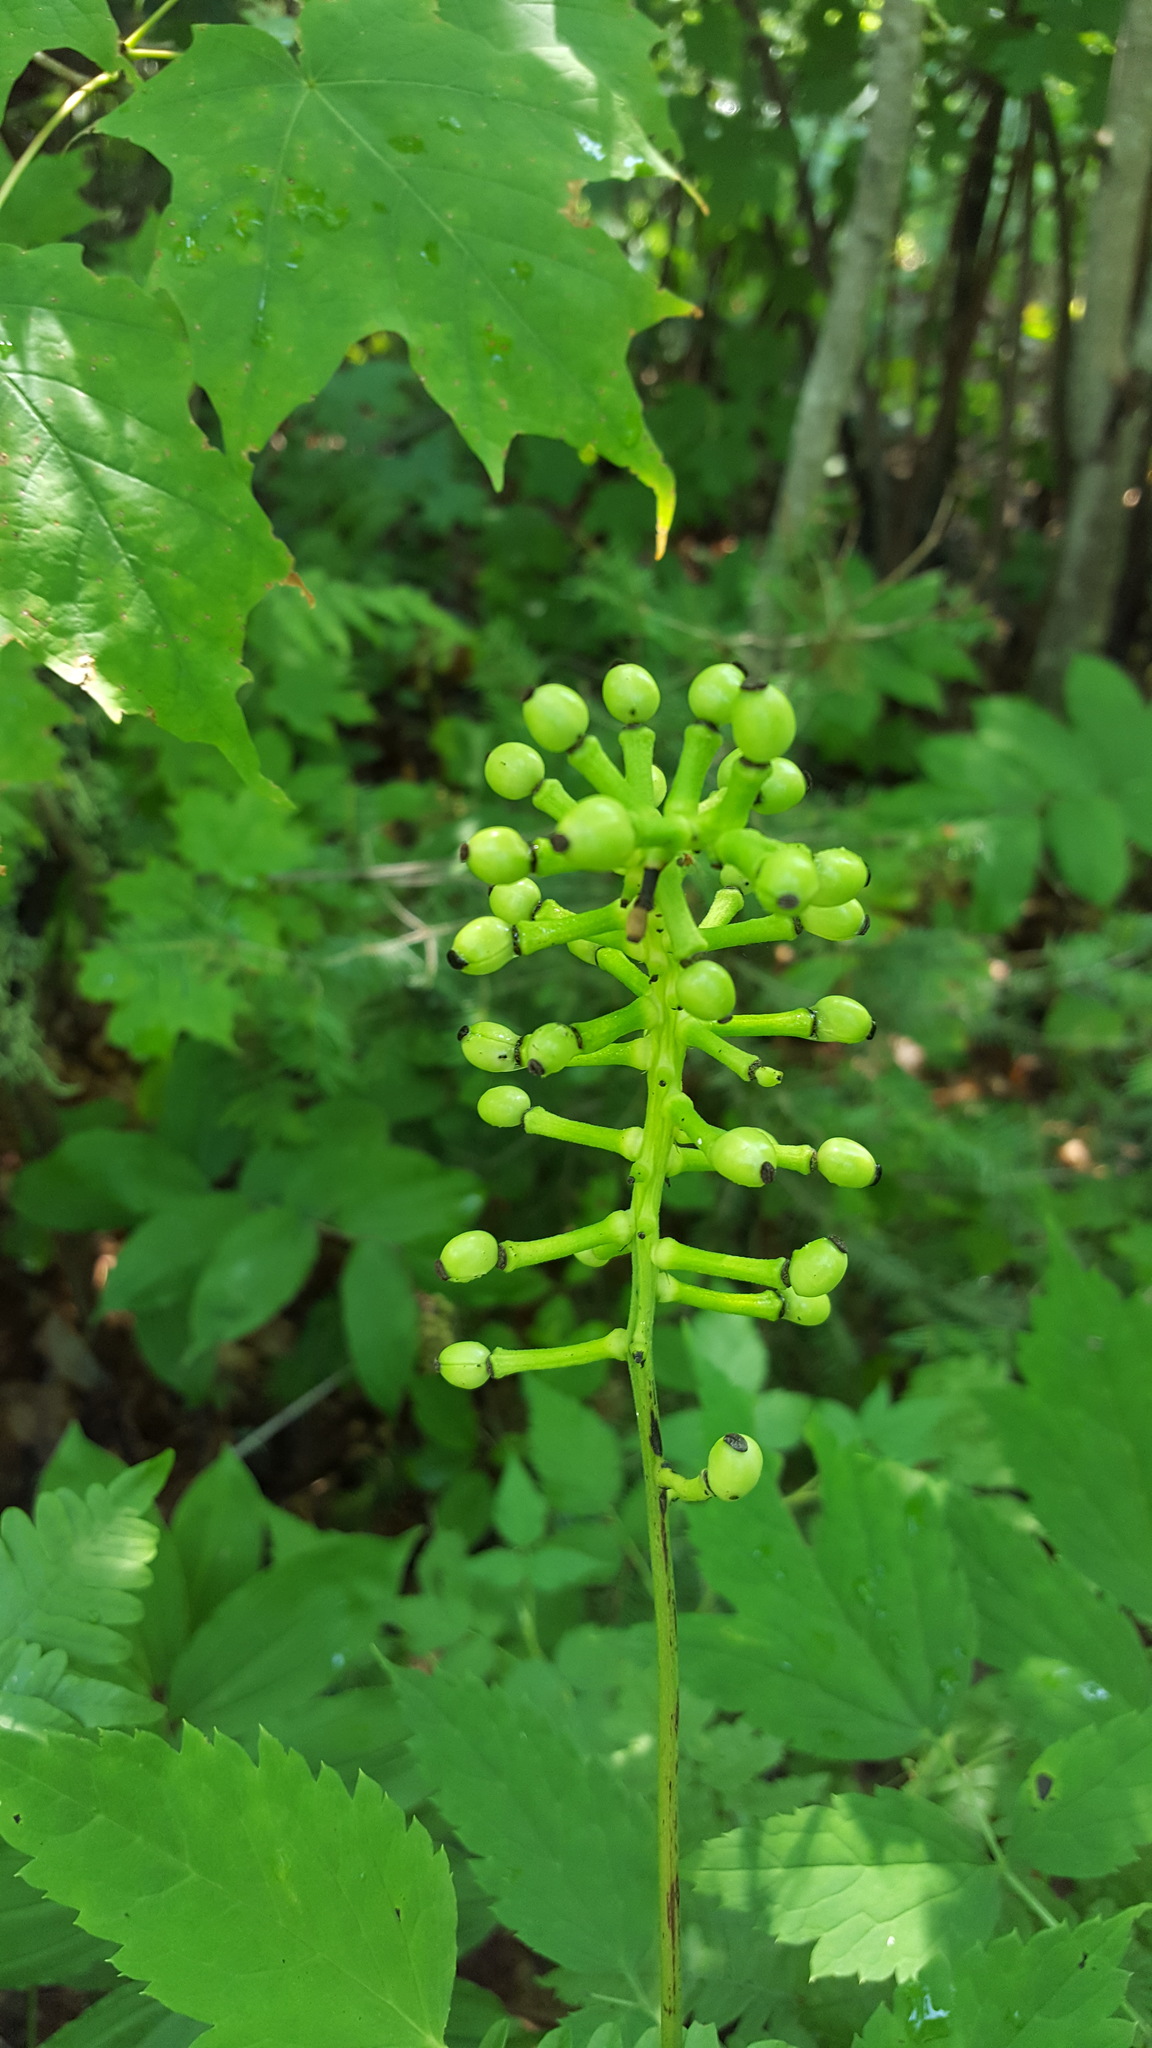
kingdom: Plantae
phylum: Tracheophyta
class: Magnoliopsida
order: Ranunculales
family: Ranunculaceae
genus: Actaea
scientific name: Actaea pachypoda
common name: Doll's-eyes
